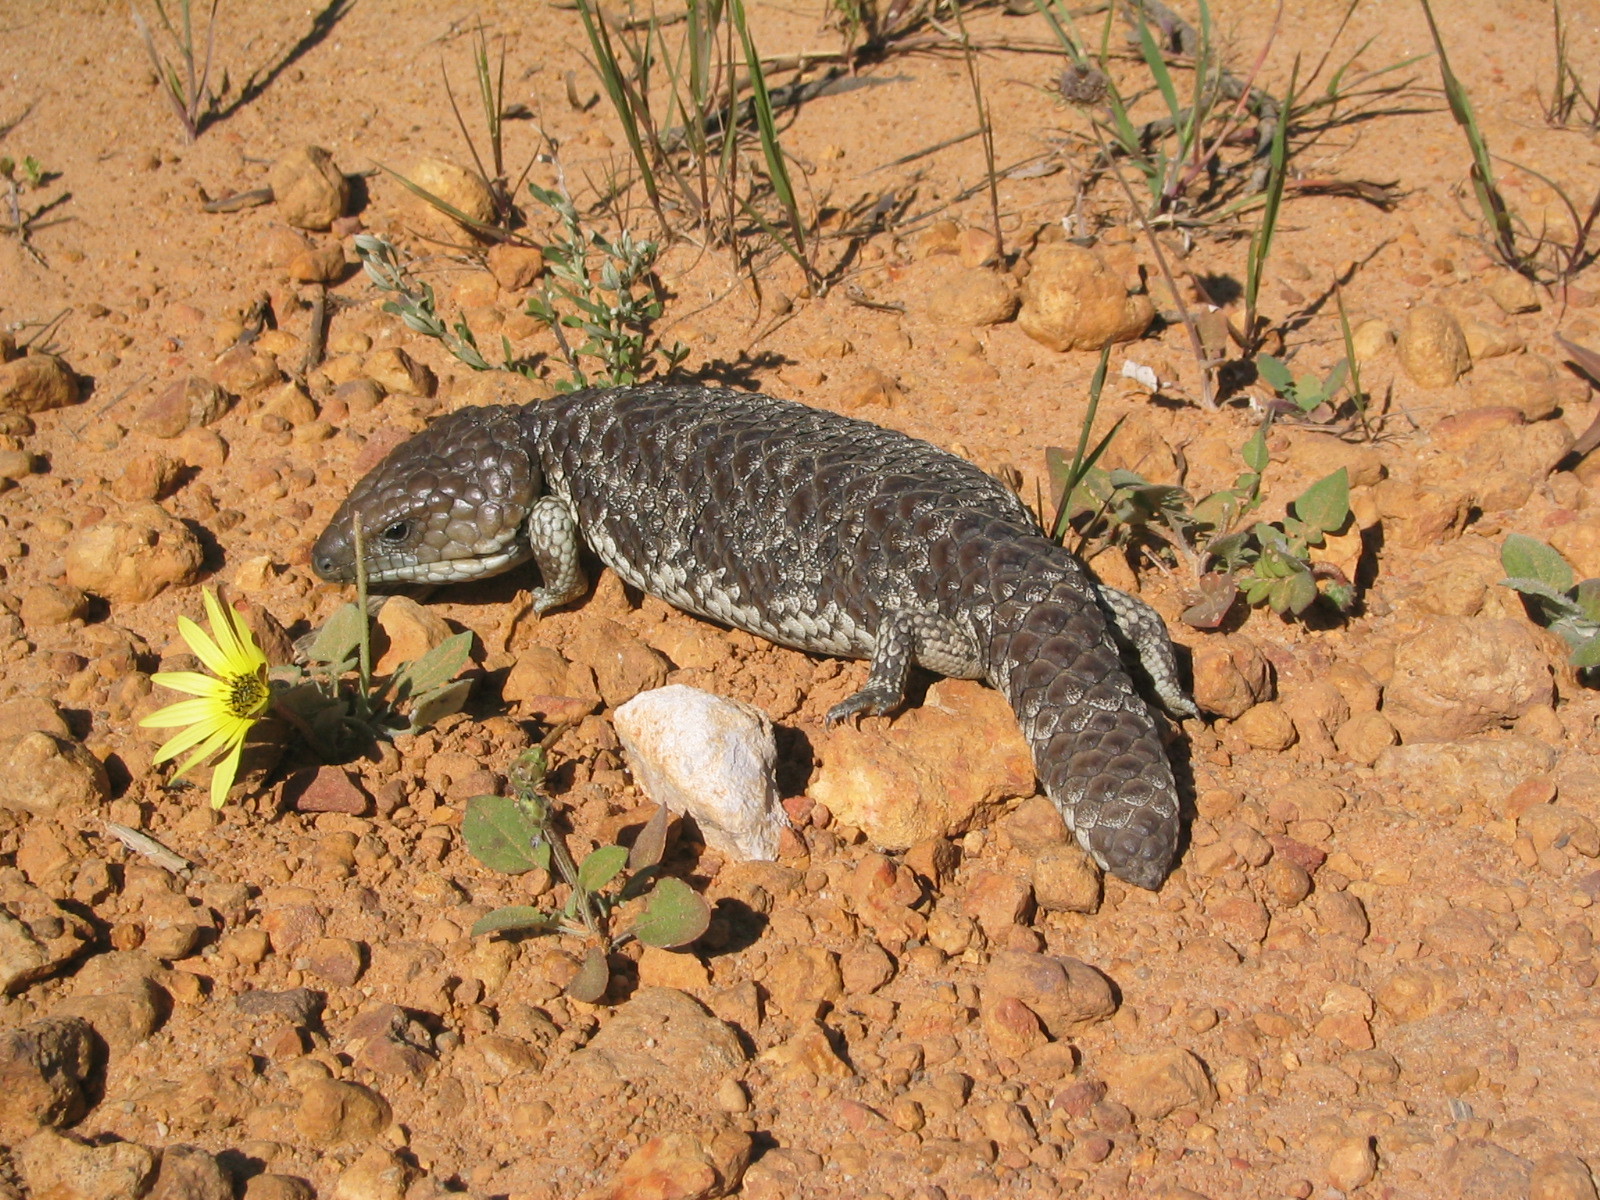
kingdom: Animalia
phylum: Chordata
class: Squamata
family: Scincidae
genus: Tiliqua
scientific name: Tiliqua rugosa
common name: Pinecone lizard
